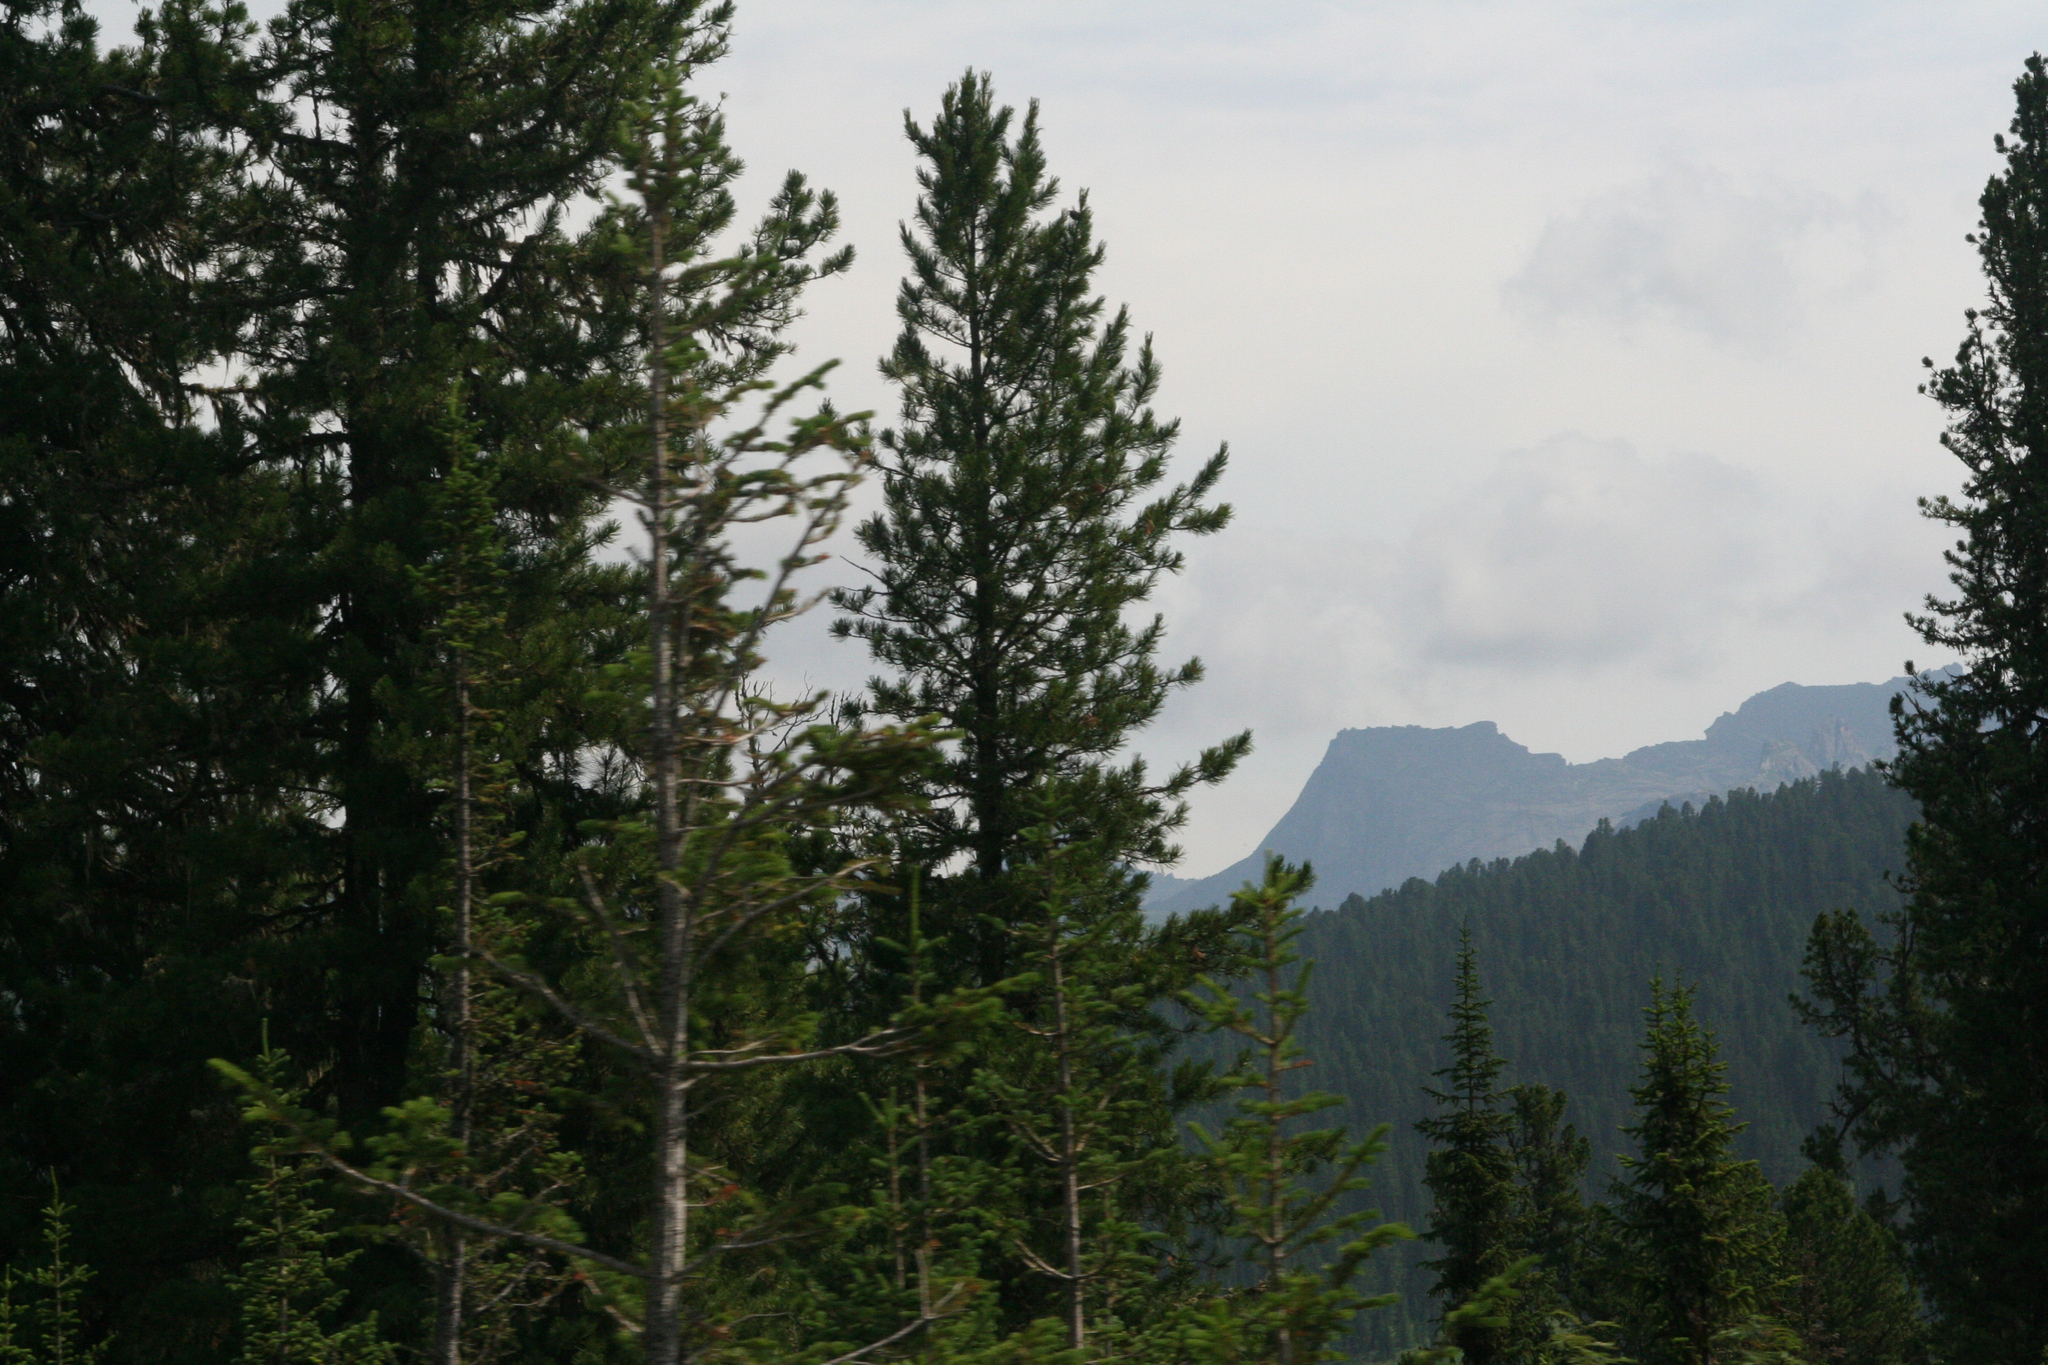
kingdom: Plantae
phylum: Tracheophyta
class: Pinopsida
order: Pinales
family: Pinaceae
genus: Pinus
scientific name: Pinus sibirica
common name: Siberian pine
